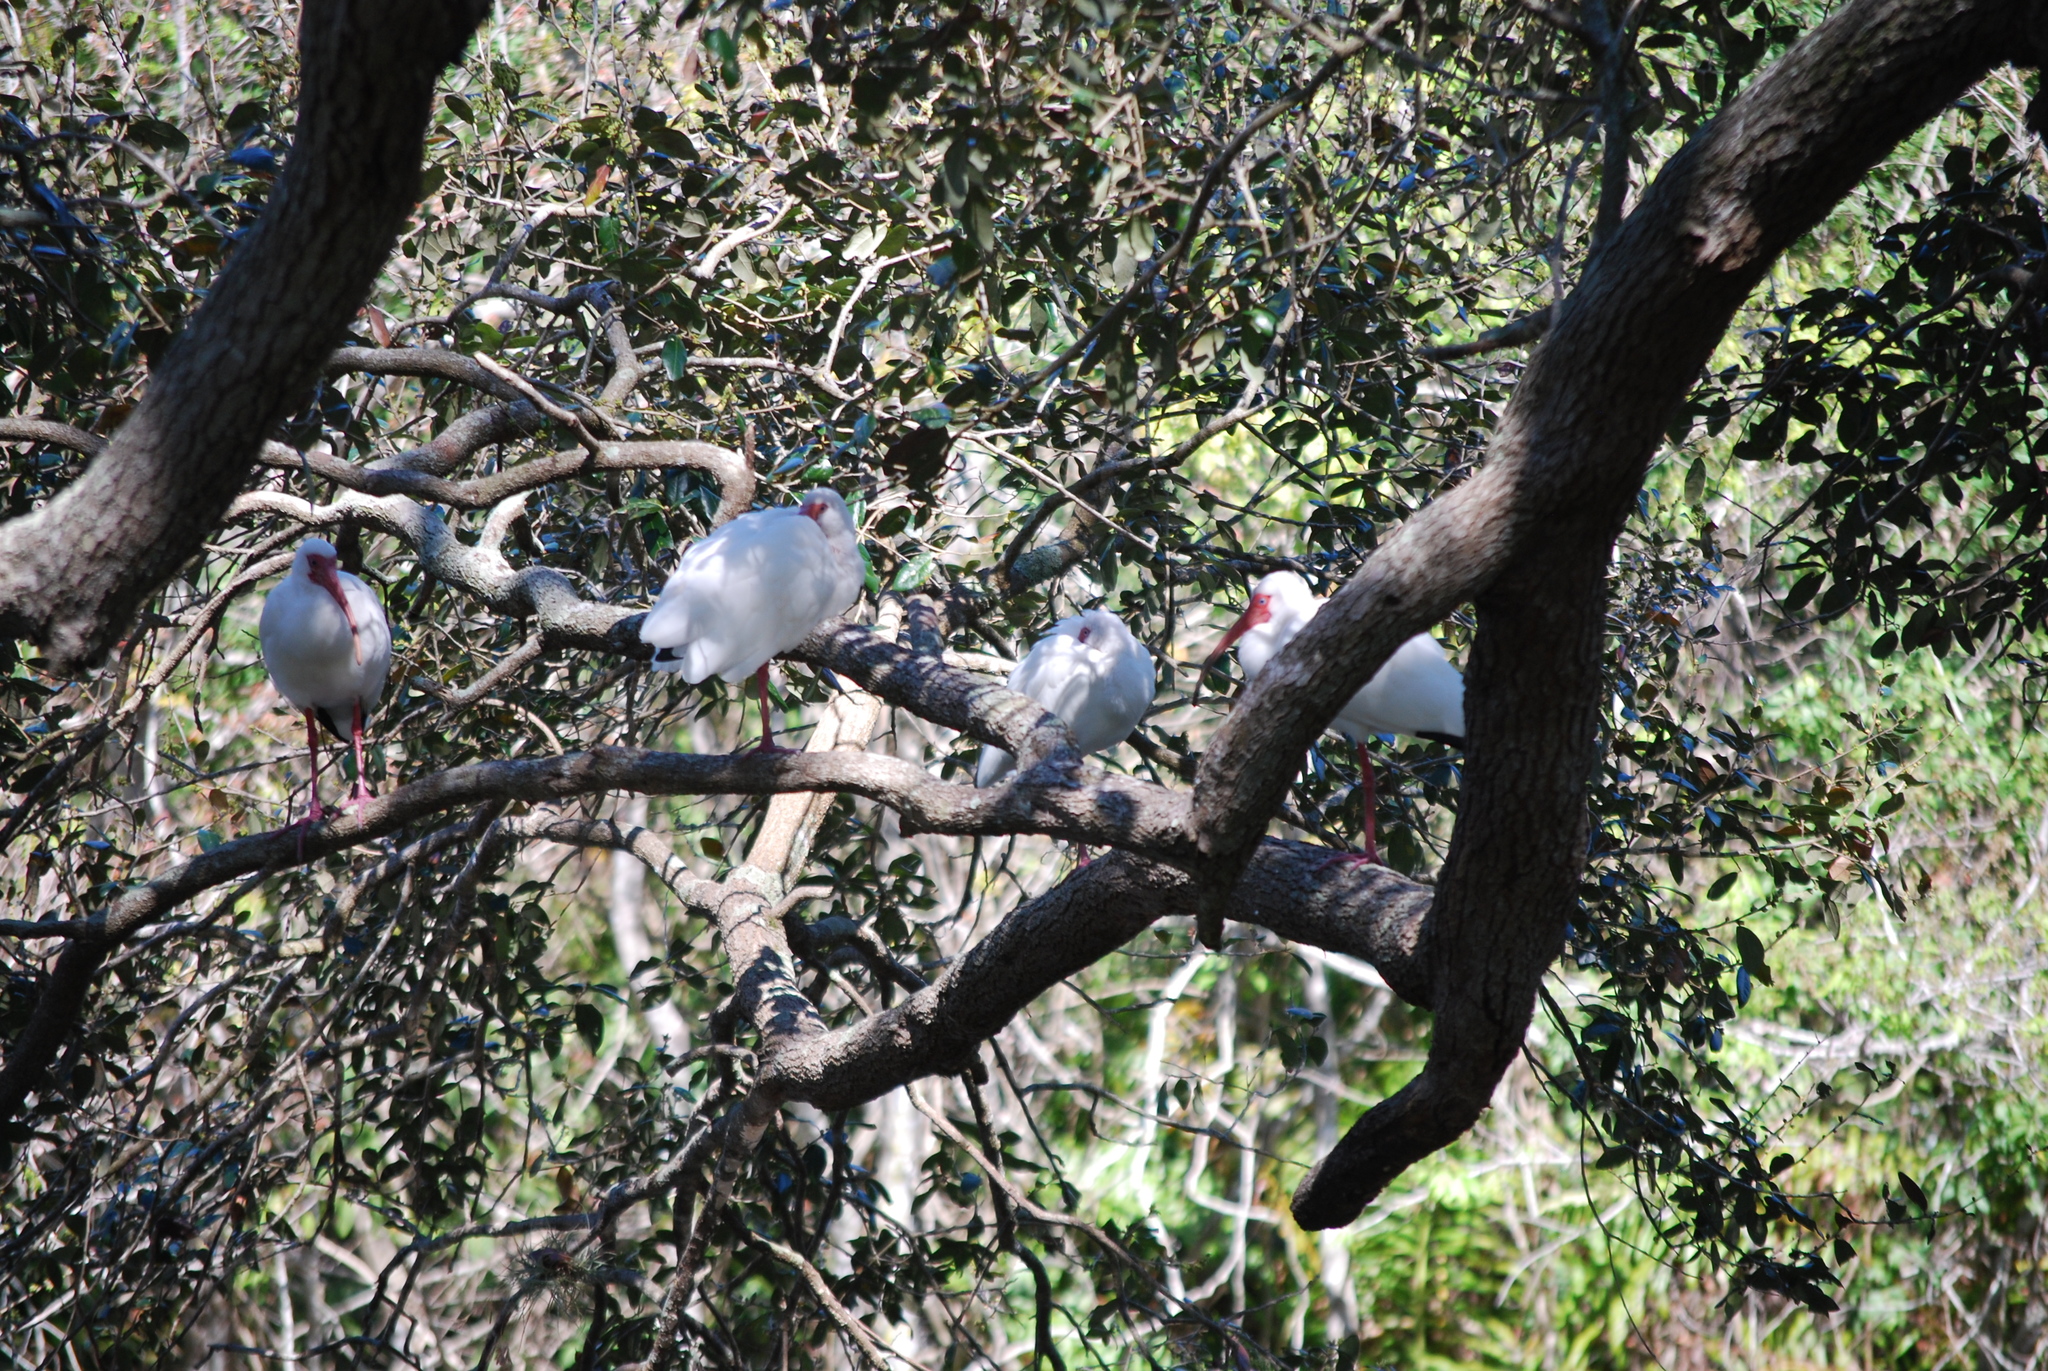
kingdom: Animalia
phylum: Chordata
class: Aves
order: Pelecaniformes
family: Threskiornithidae
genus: Eudocimus
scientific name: Eudocimus albus
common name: White ibis
